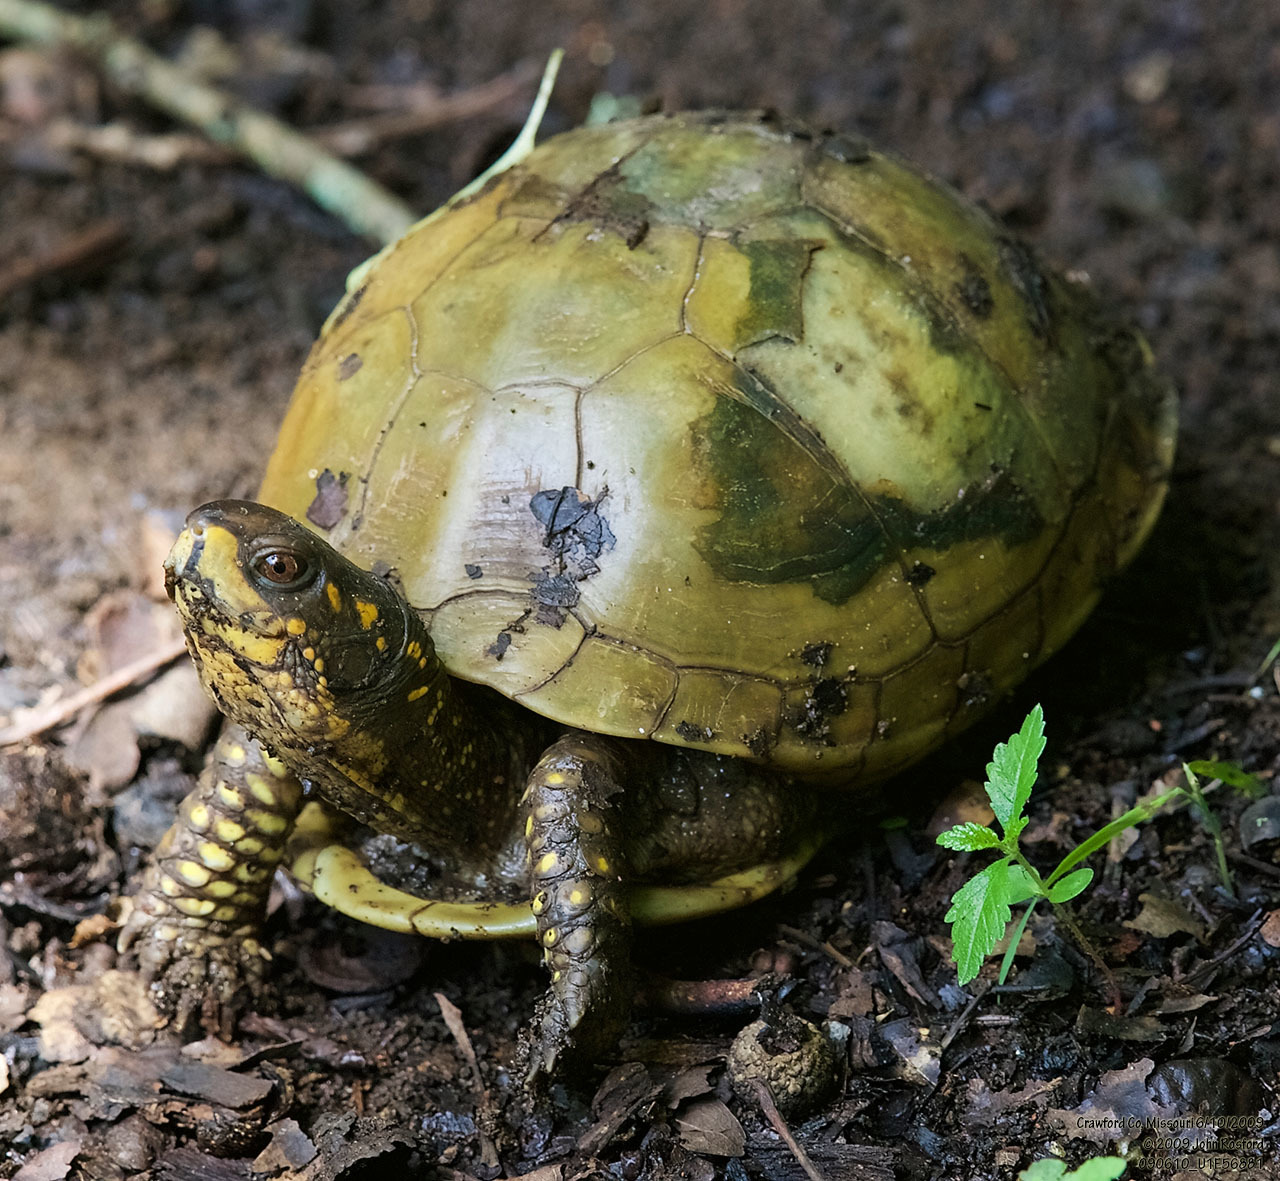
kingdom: Animalia
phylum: Chordata
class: Testudines
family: Emydidae
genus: Terrapene
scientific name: Terrapene carolina
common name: Common box turtle
